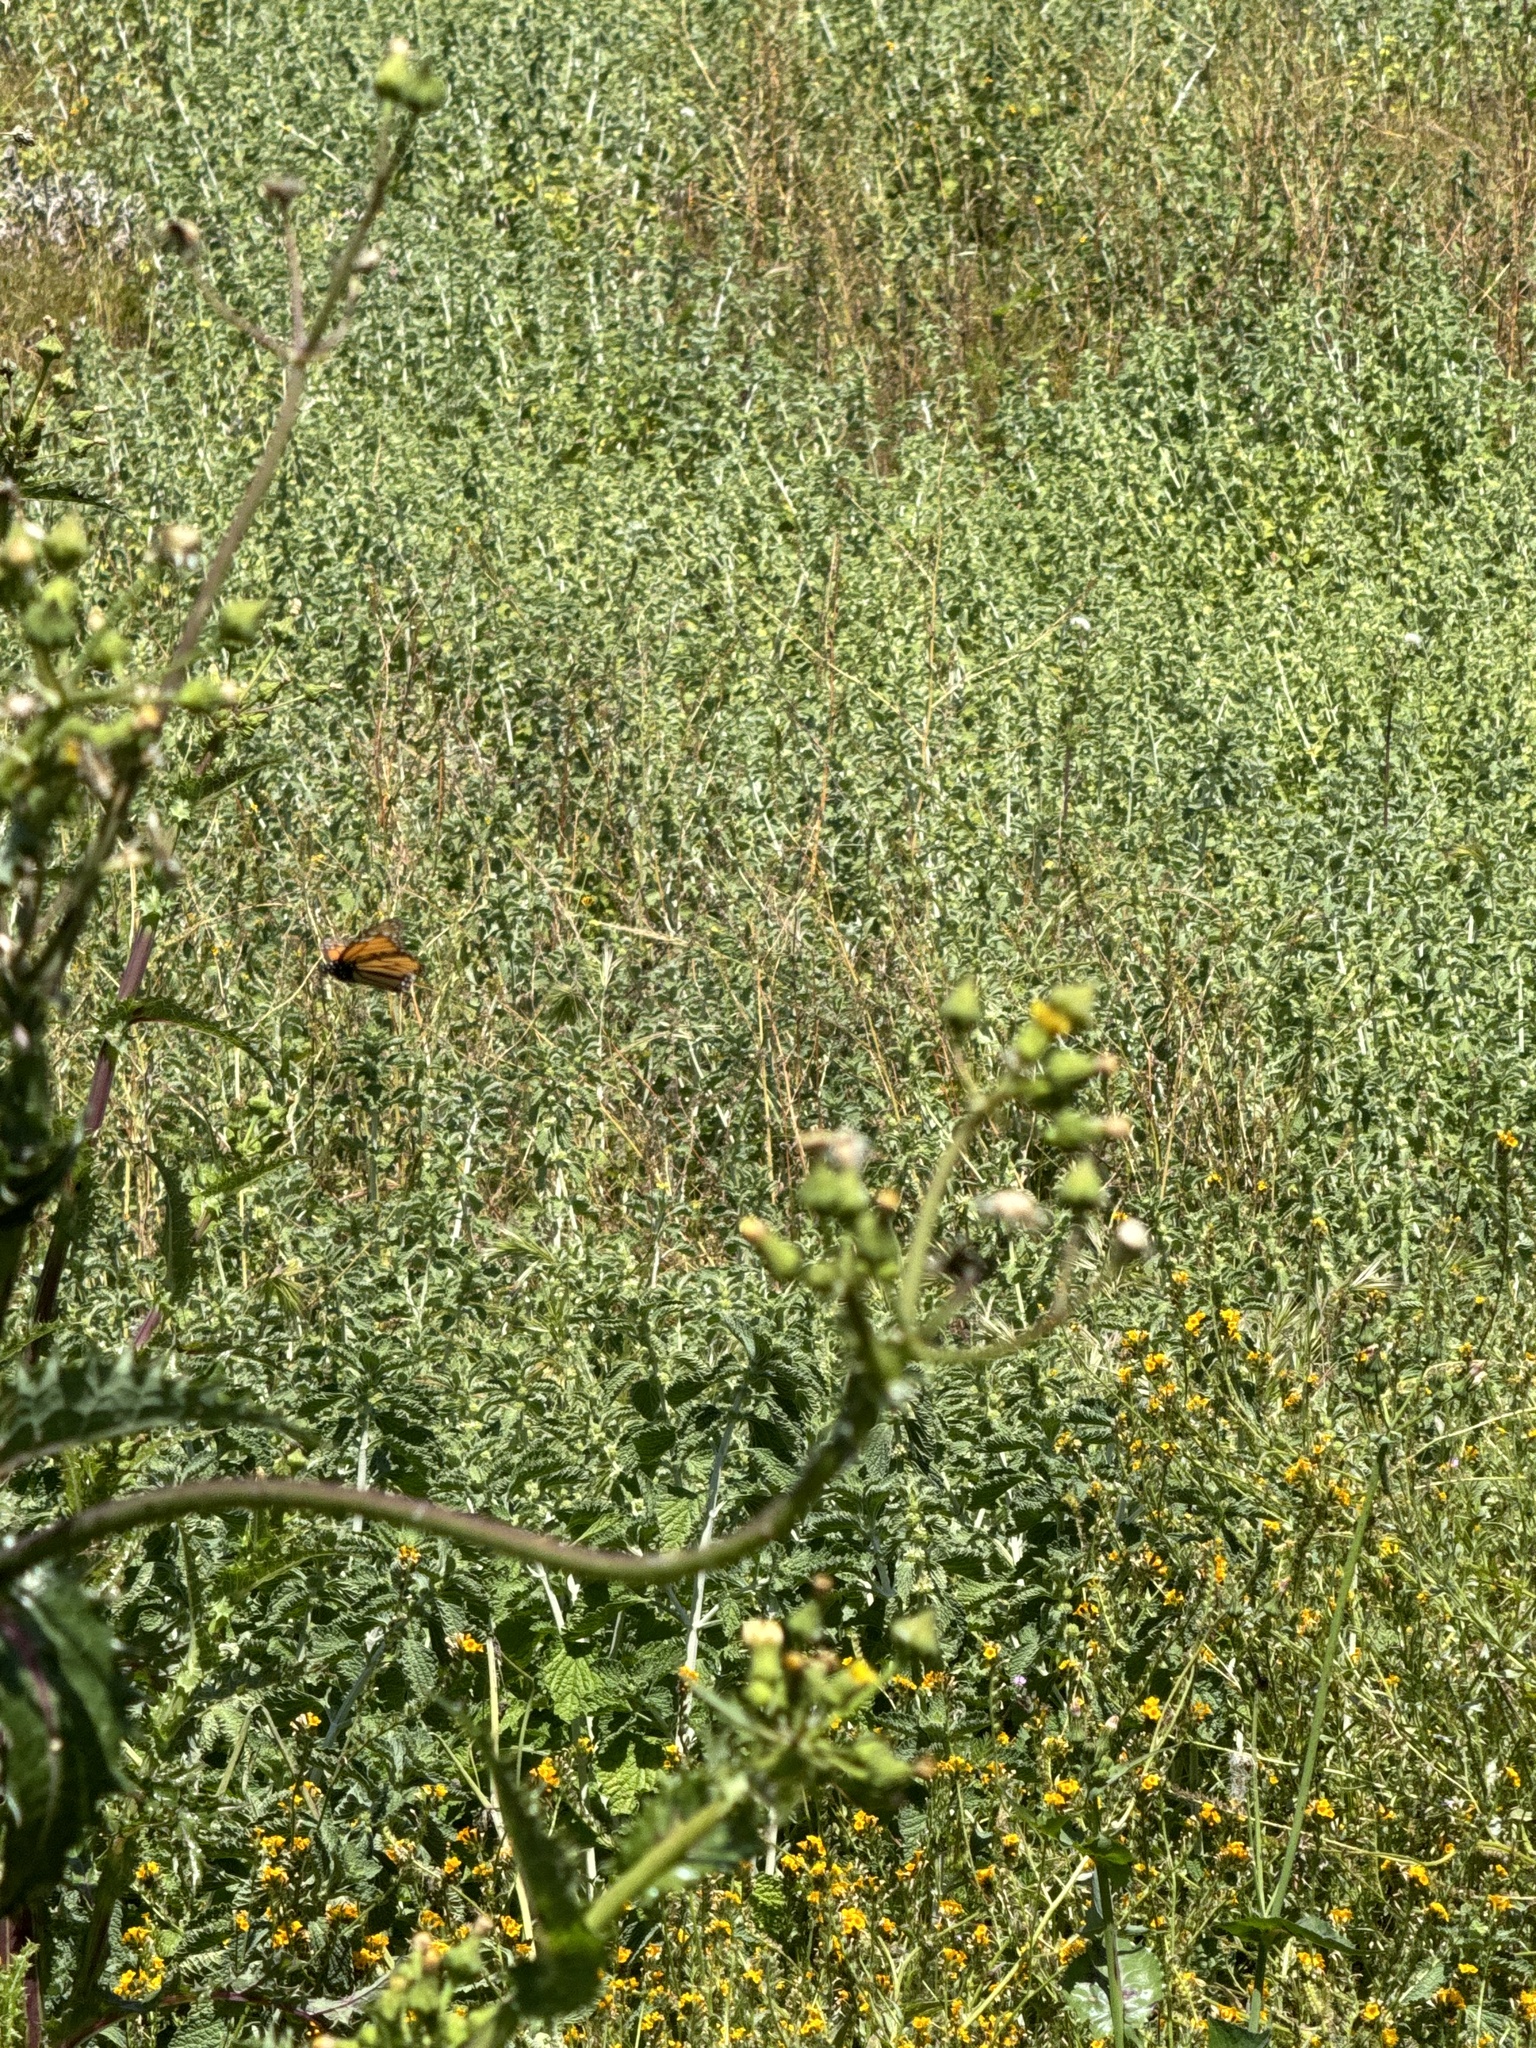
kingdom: Animalia
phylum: Arthropoda
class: Insecta
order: Lepidoptera
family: Nymphalidae
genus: Danaus
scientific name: Danaus plexippus
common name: Monarch
